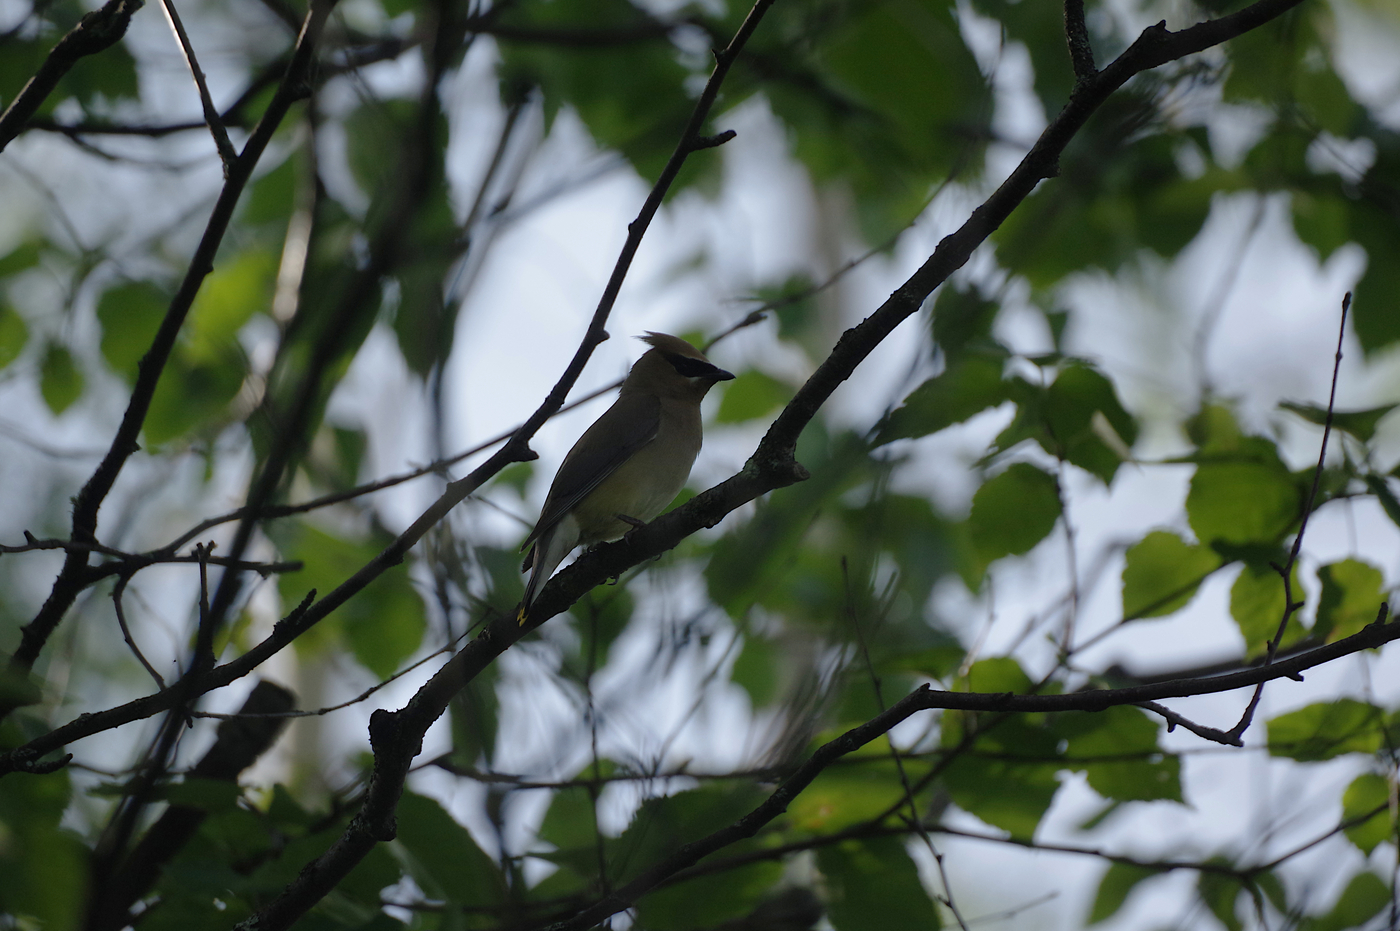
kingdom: Animalia
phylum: Chordata
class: Aves
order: Passeriformes
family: Bombycillidae
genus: Bombycilla
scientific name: Bombycilla cedrorum
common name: Cedar waxwing
